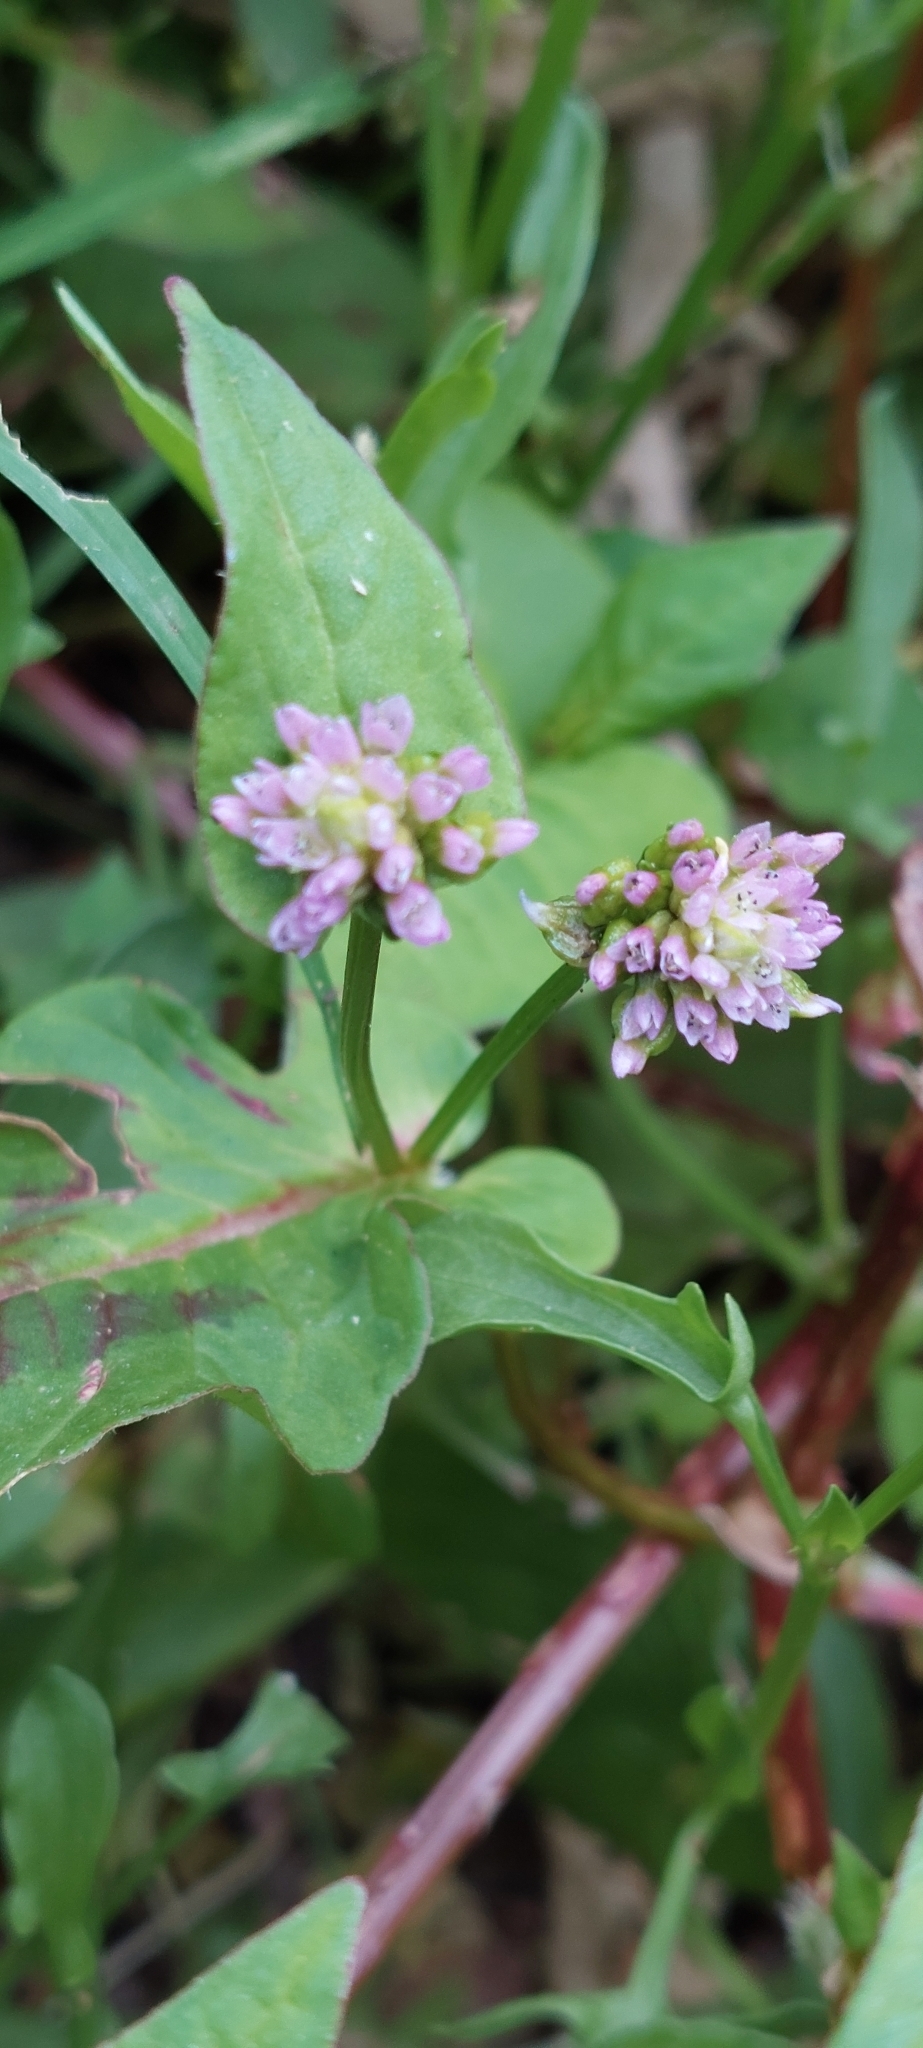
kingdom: Plantae
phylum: Tracheophyta
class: Magnoliopsida
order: Caryophyllales
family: Polygonaceae
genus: Persicaria
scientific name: Persicaria nepalensis
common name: Nepal persicaria
